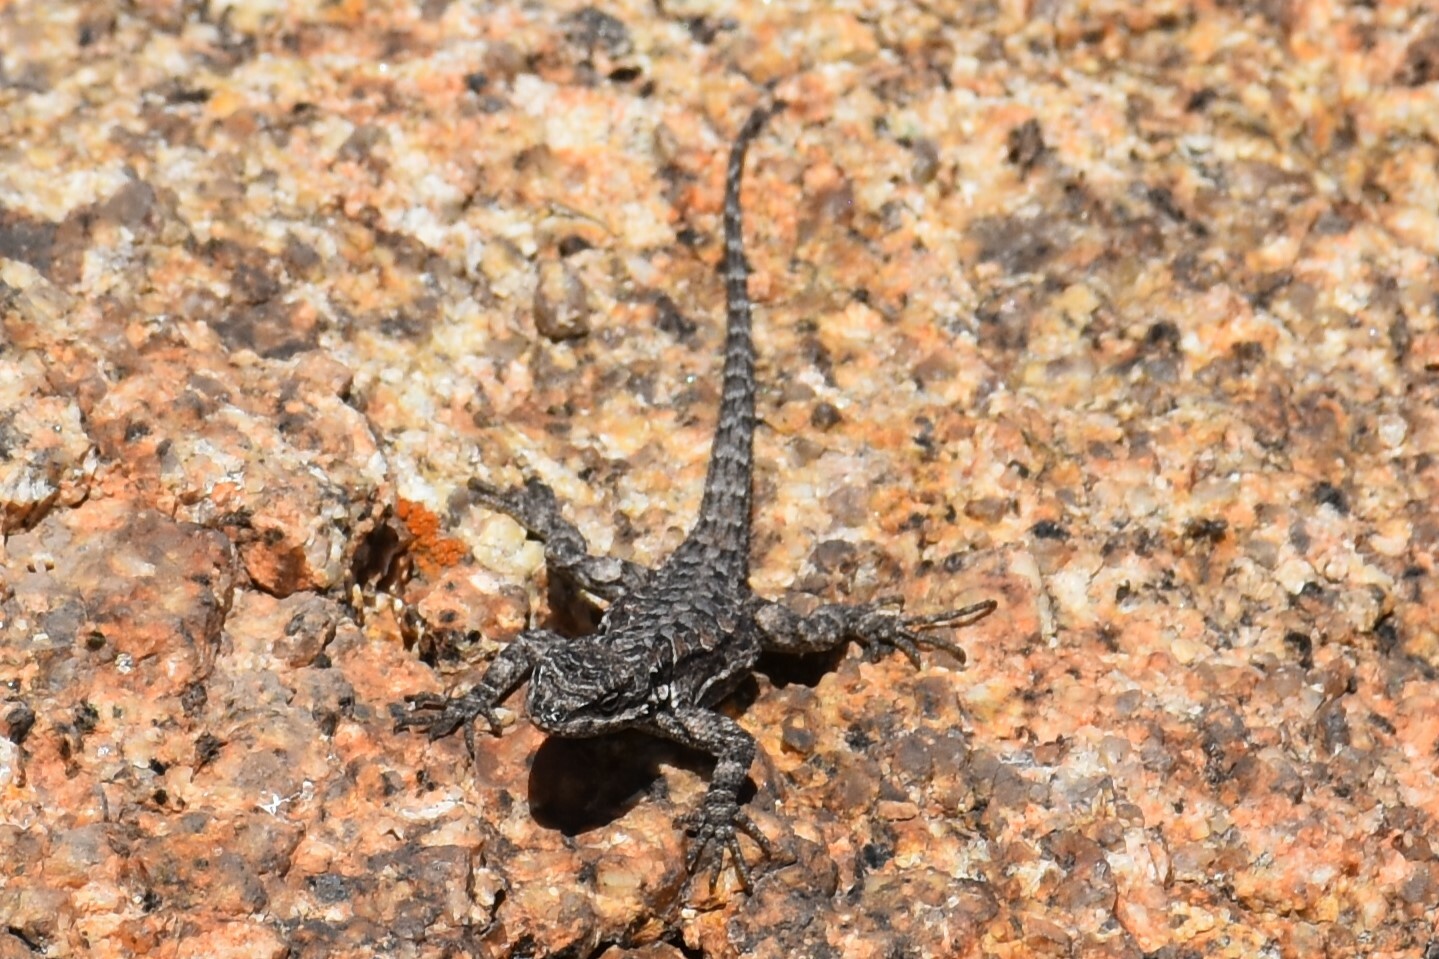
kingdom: Animalia
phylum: Chordata
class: Squamata
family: Phrynosomatidae
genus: Urosaurus
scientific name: Urosaurus ornatus
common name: Ornate tree lizard
